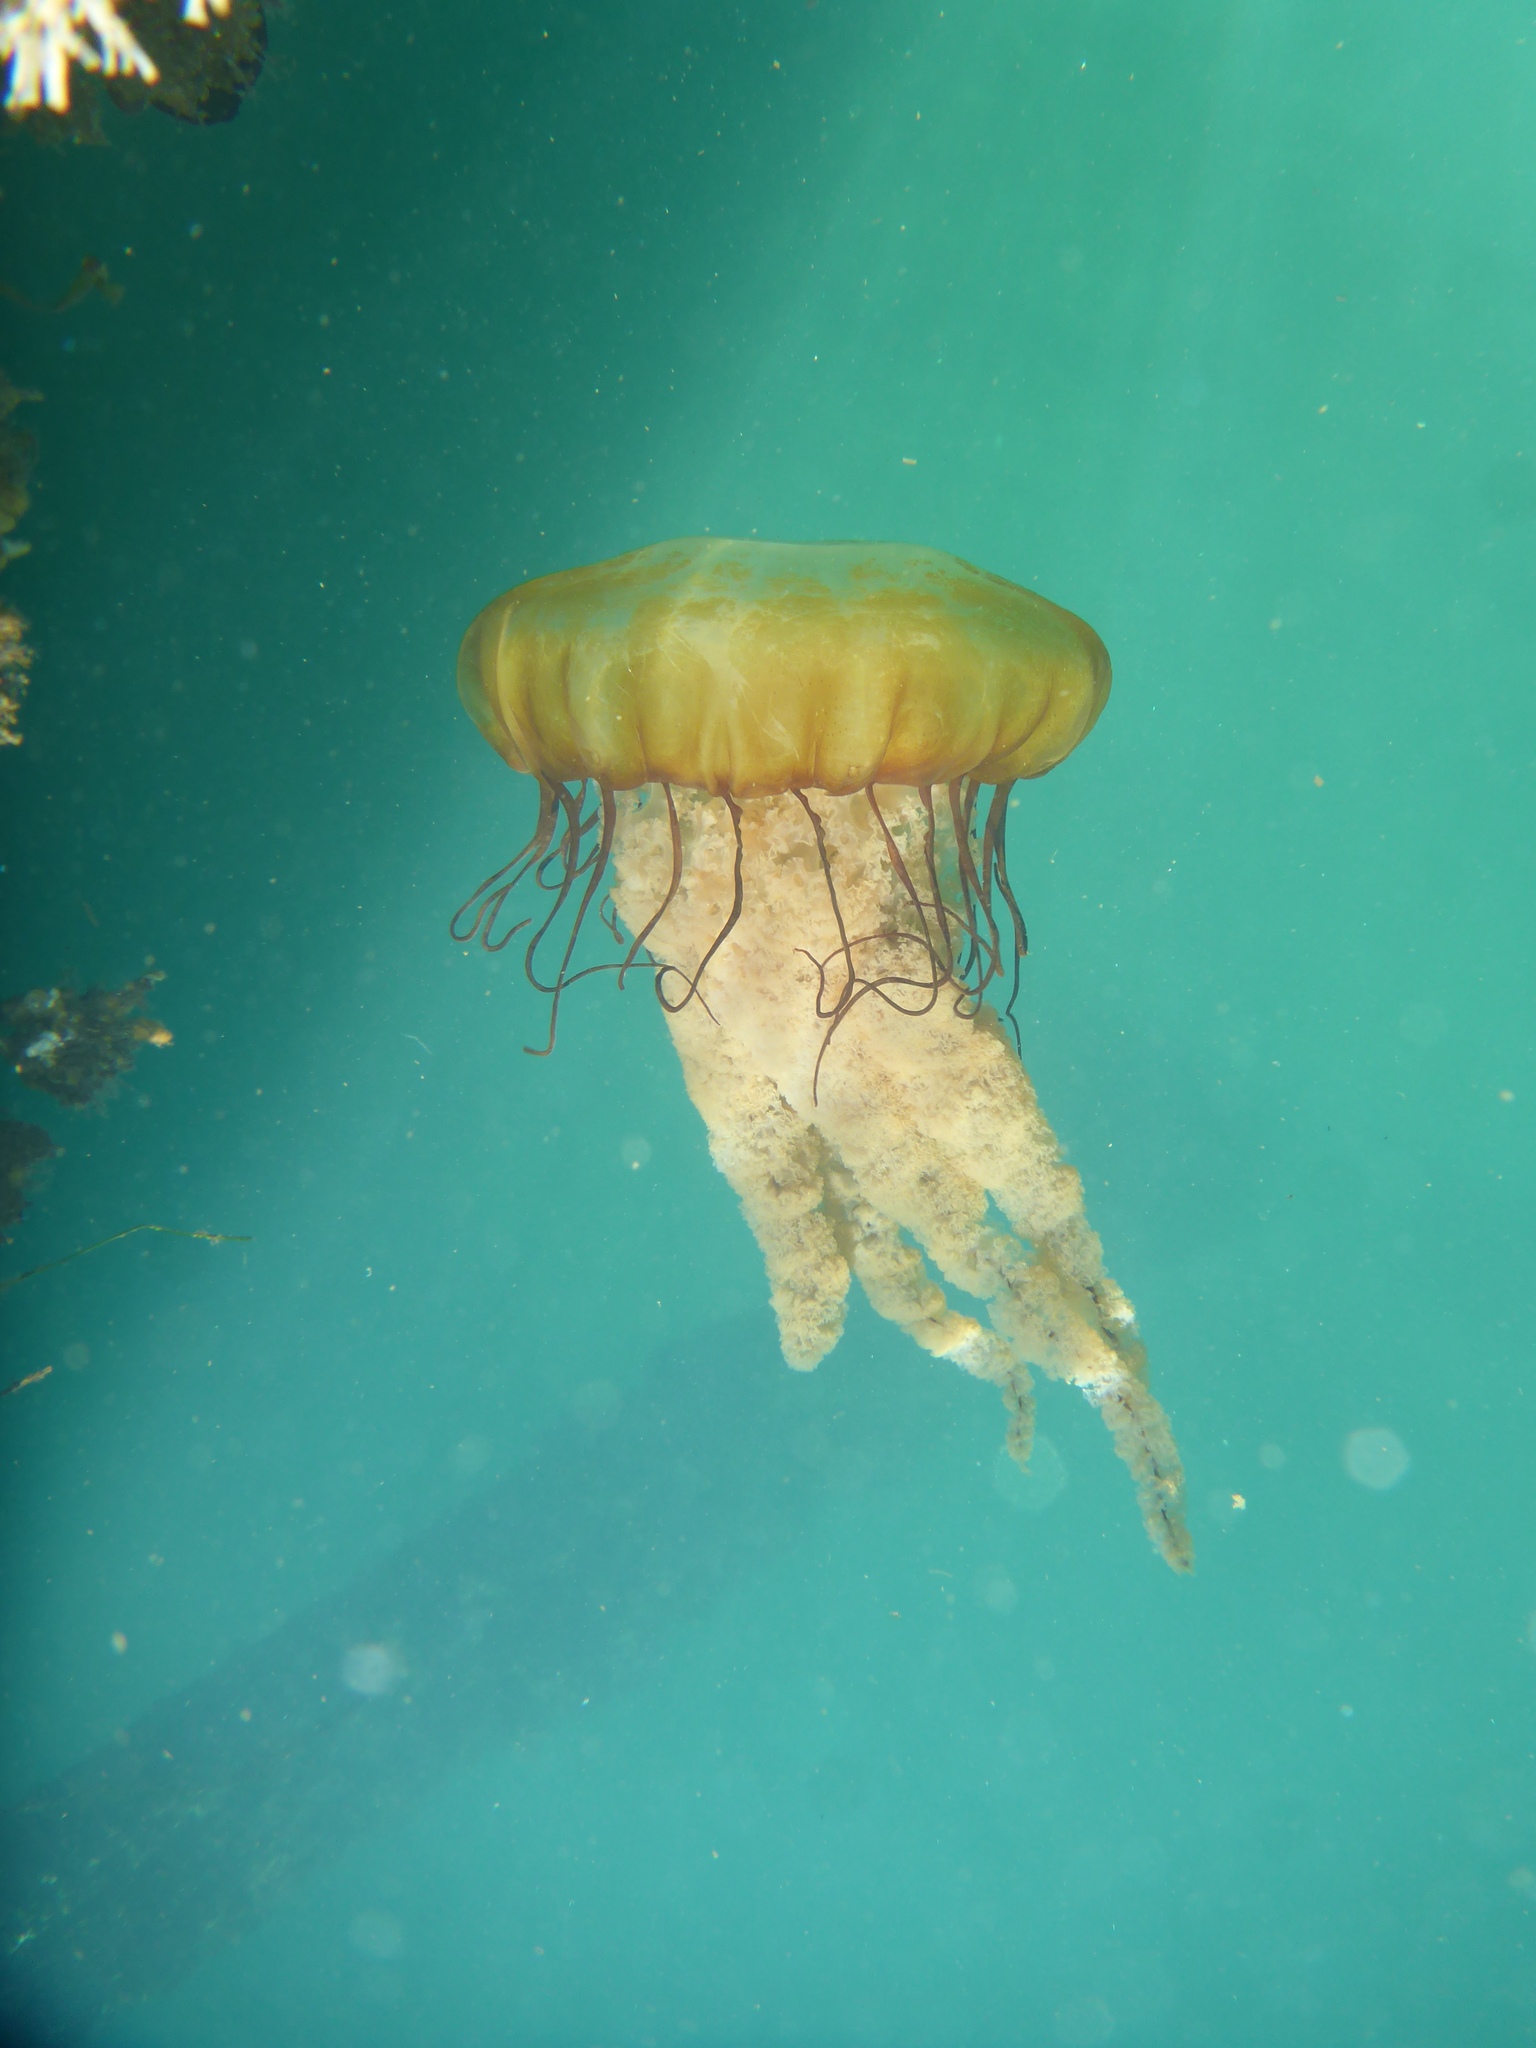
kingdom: Animalia
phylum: Cnidaria
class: Scyphozoa
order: Semaeostomeae
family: Pelagiidae
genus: Chrysaora
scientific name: Chrysaora fuscescens
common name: Sea nettle
